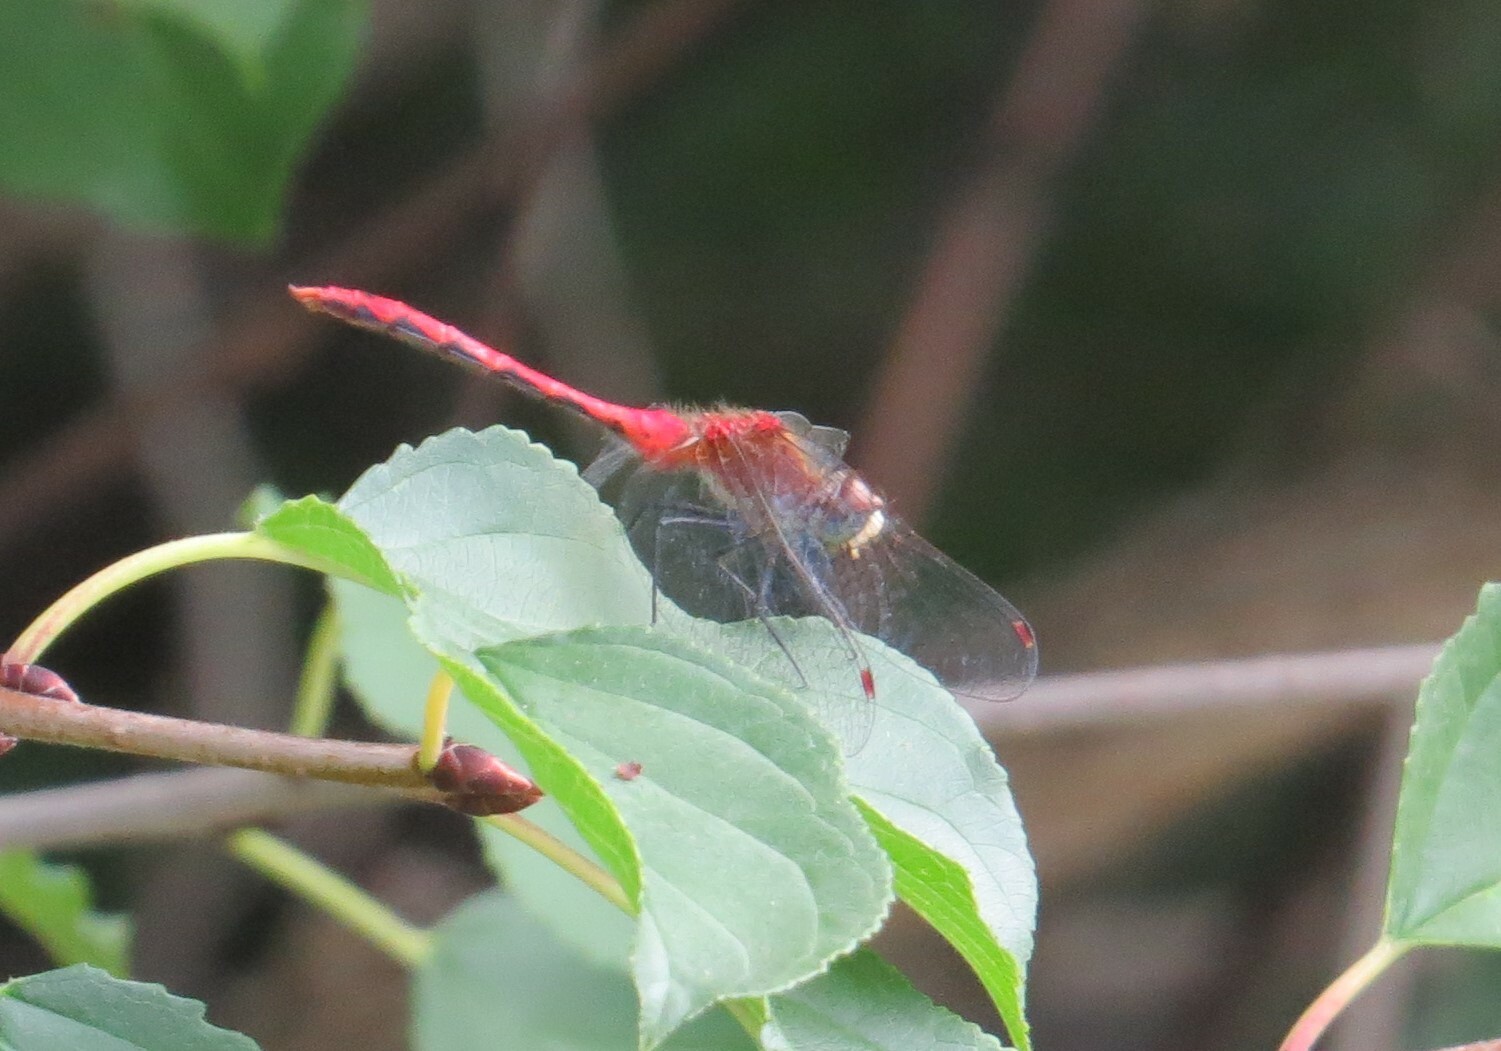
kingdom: Animalia
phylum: Arthropoda
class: Insecta
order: Odonata
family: Libellulidae
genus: Sympetrum
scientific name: Sympetrum obtrusum
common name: White-faced meadowhawk
